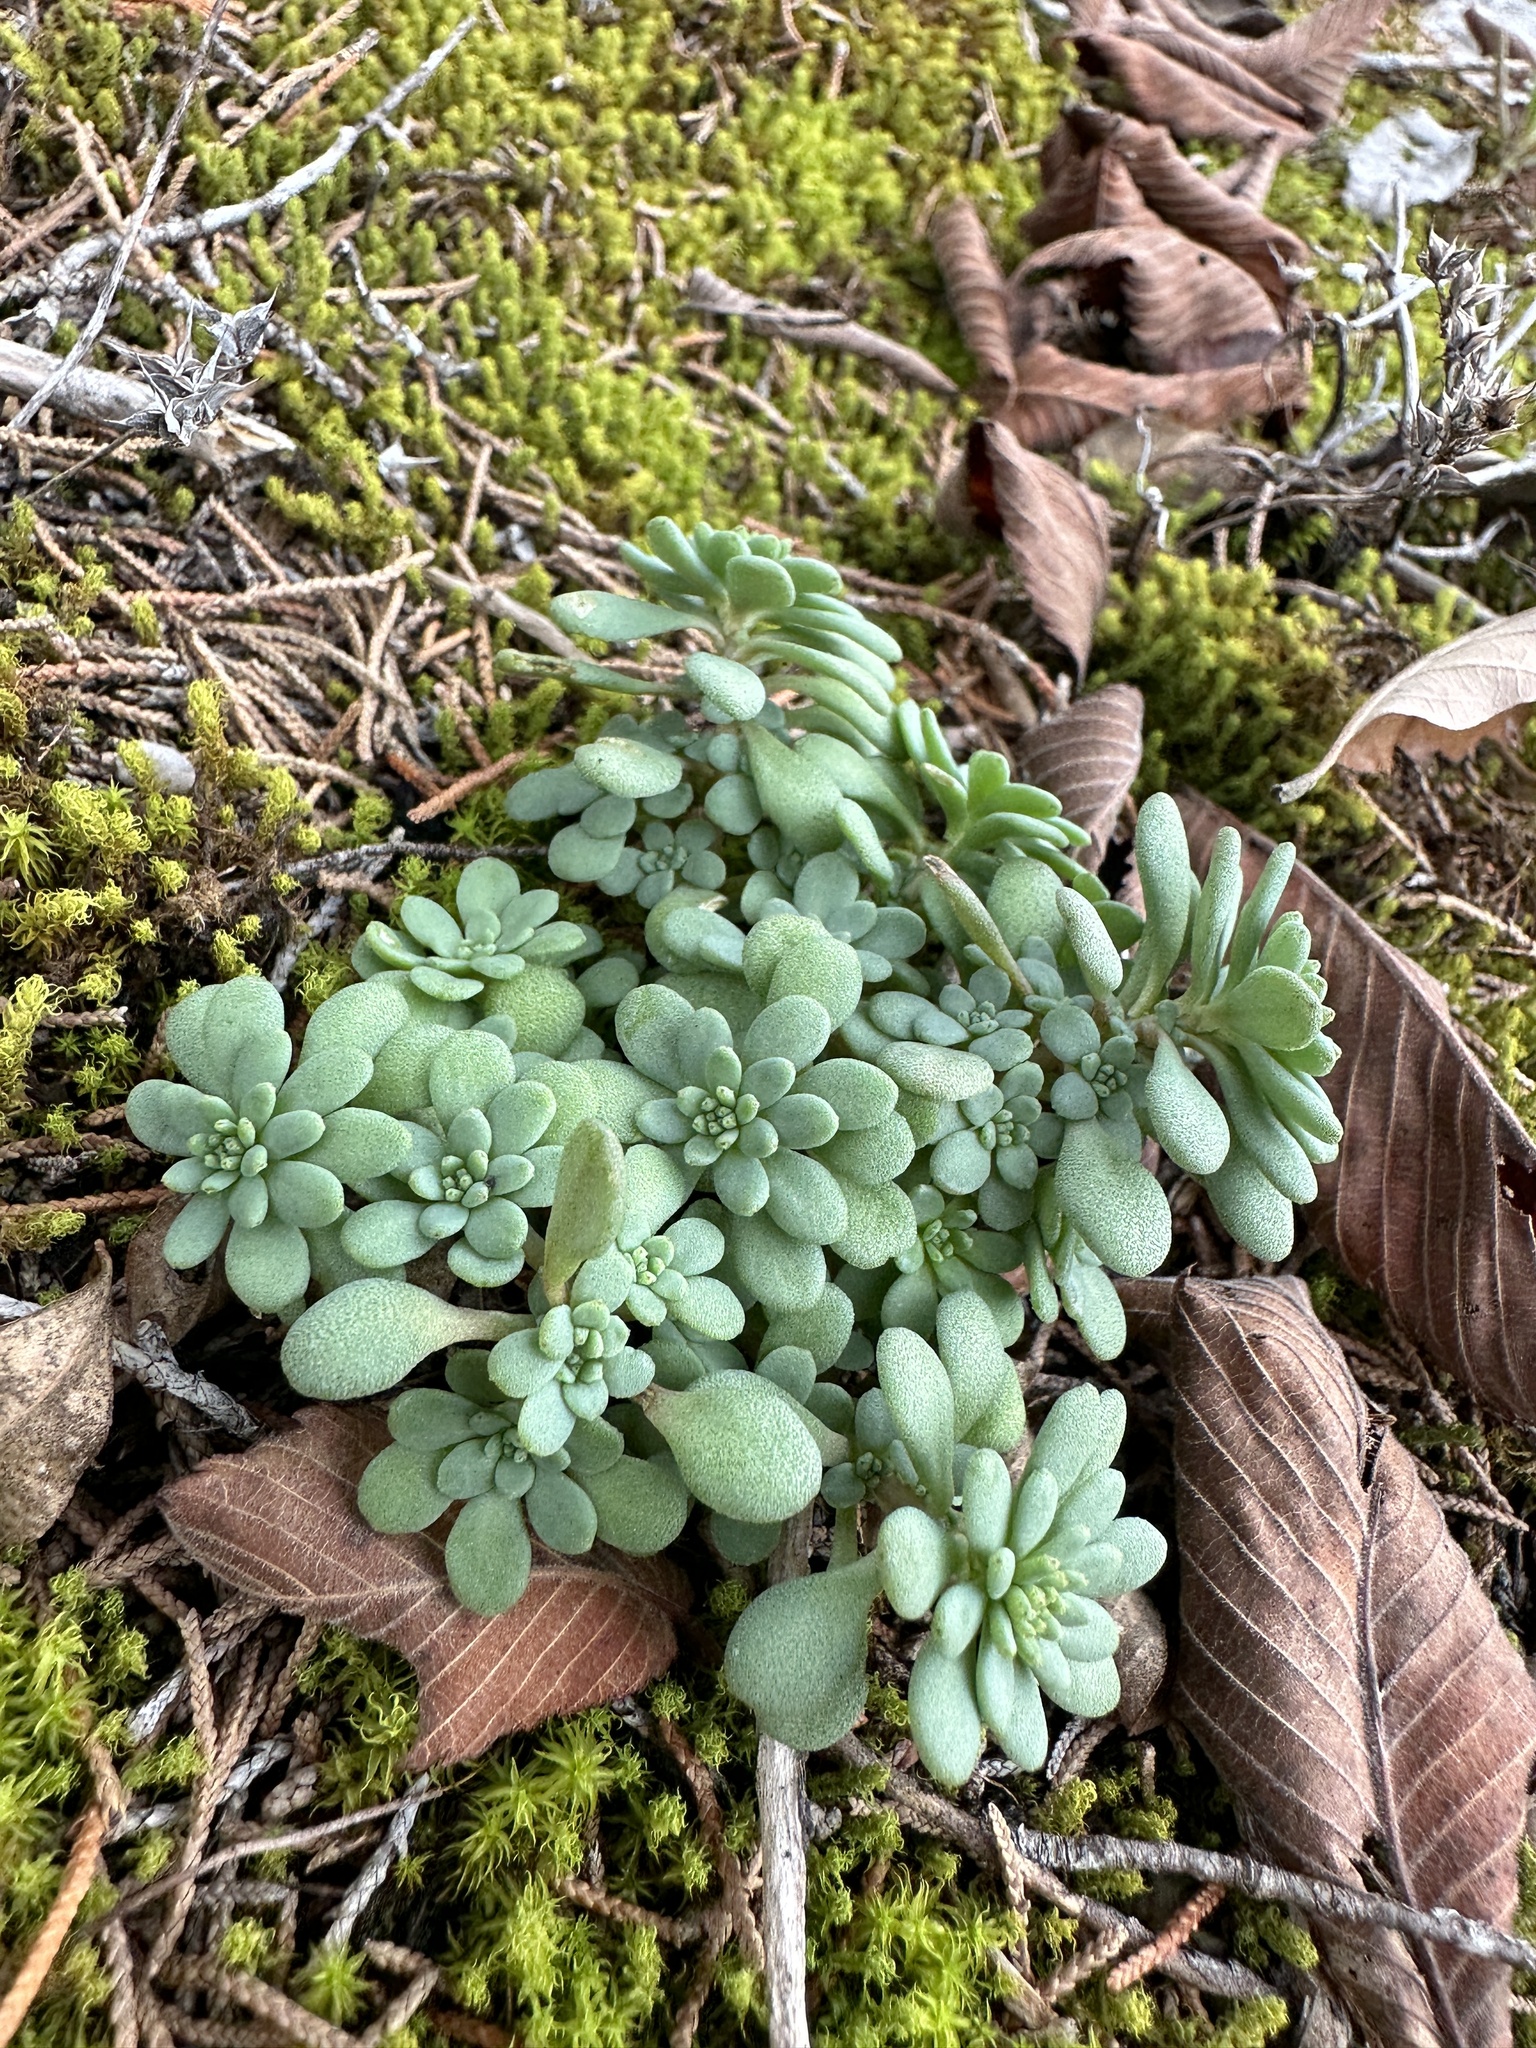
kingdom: Plantae
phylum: Tracheophyta
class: Magnoliopsida
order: Saxifragales
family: Crassulaceae
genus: Sedum
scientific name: Sedum pulchellum
